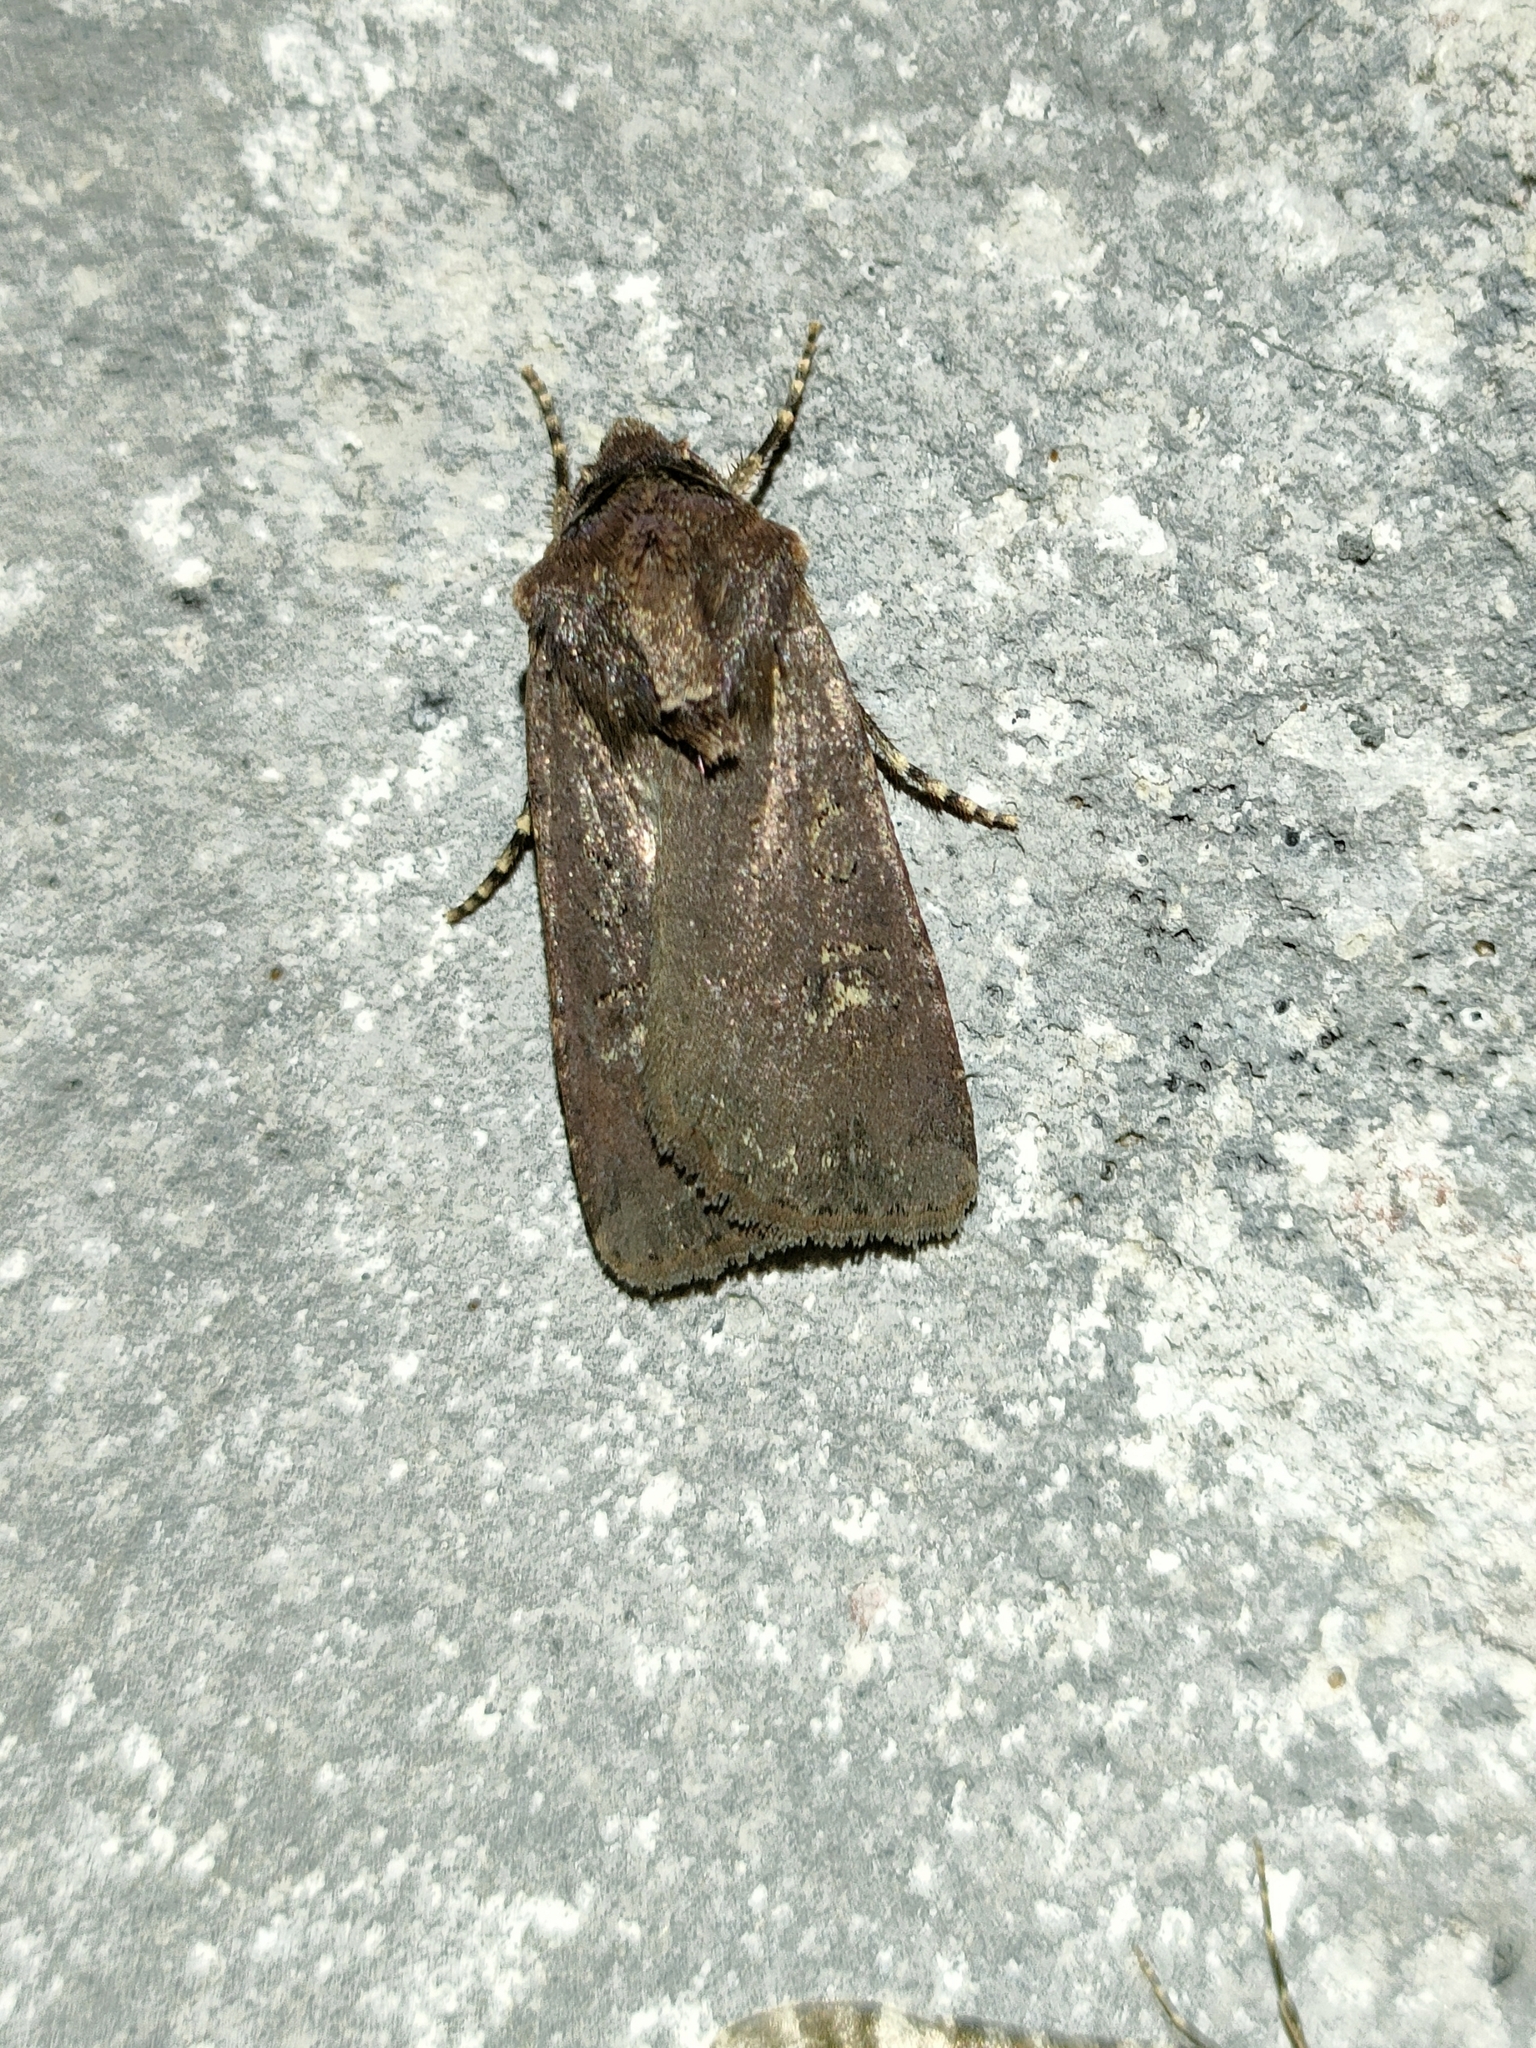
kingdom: Animalia
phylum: Arthropoda
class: Insecta
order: Lepidoptera
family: Noctuidae
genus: Euxoa
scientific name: Euxoa nigricans
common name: Garden dart
